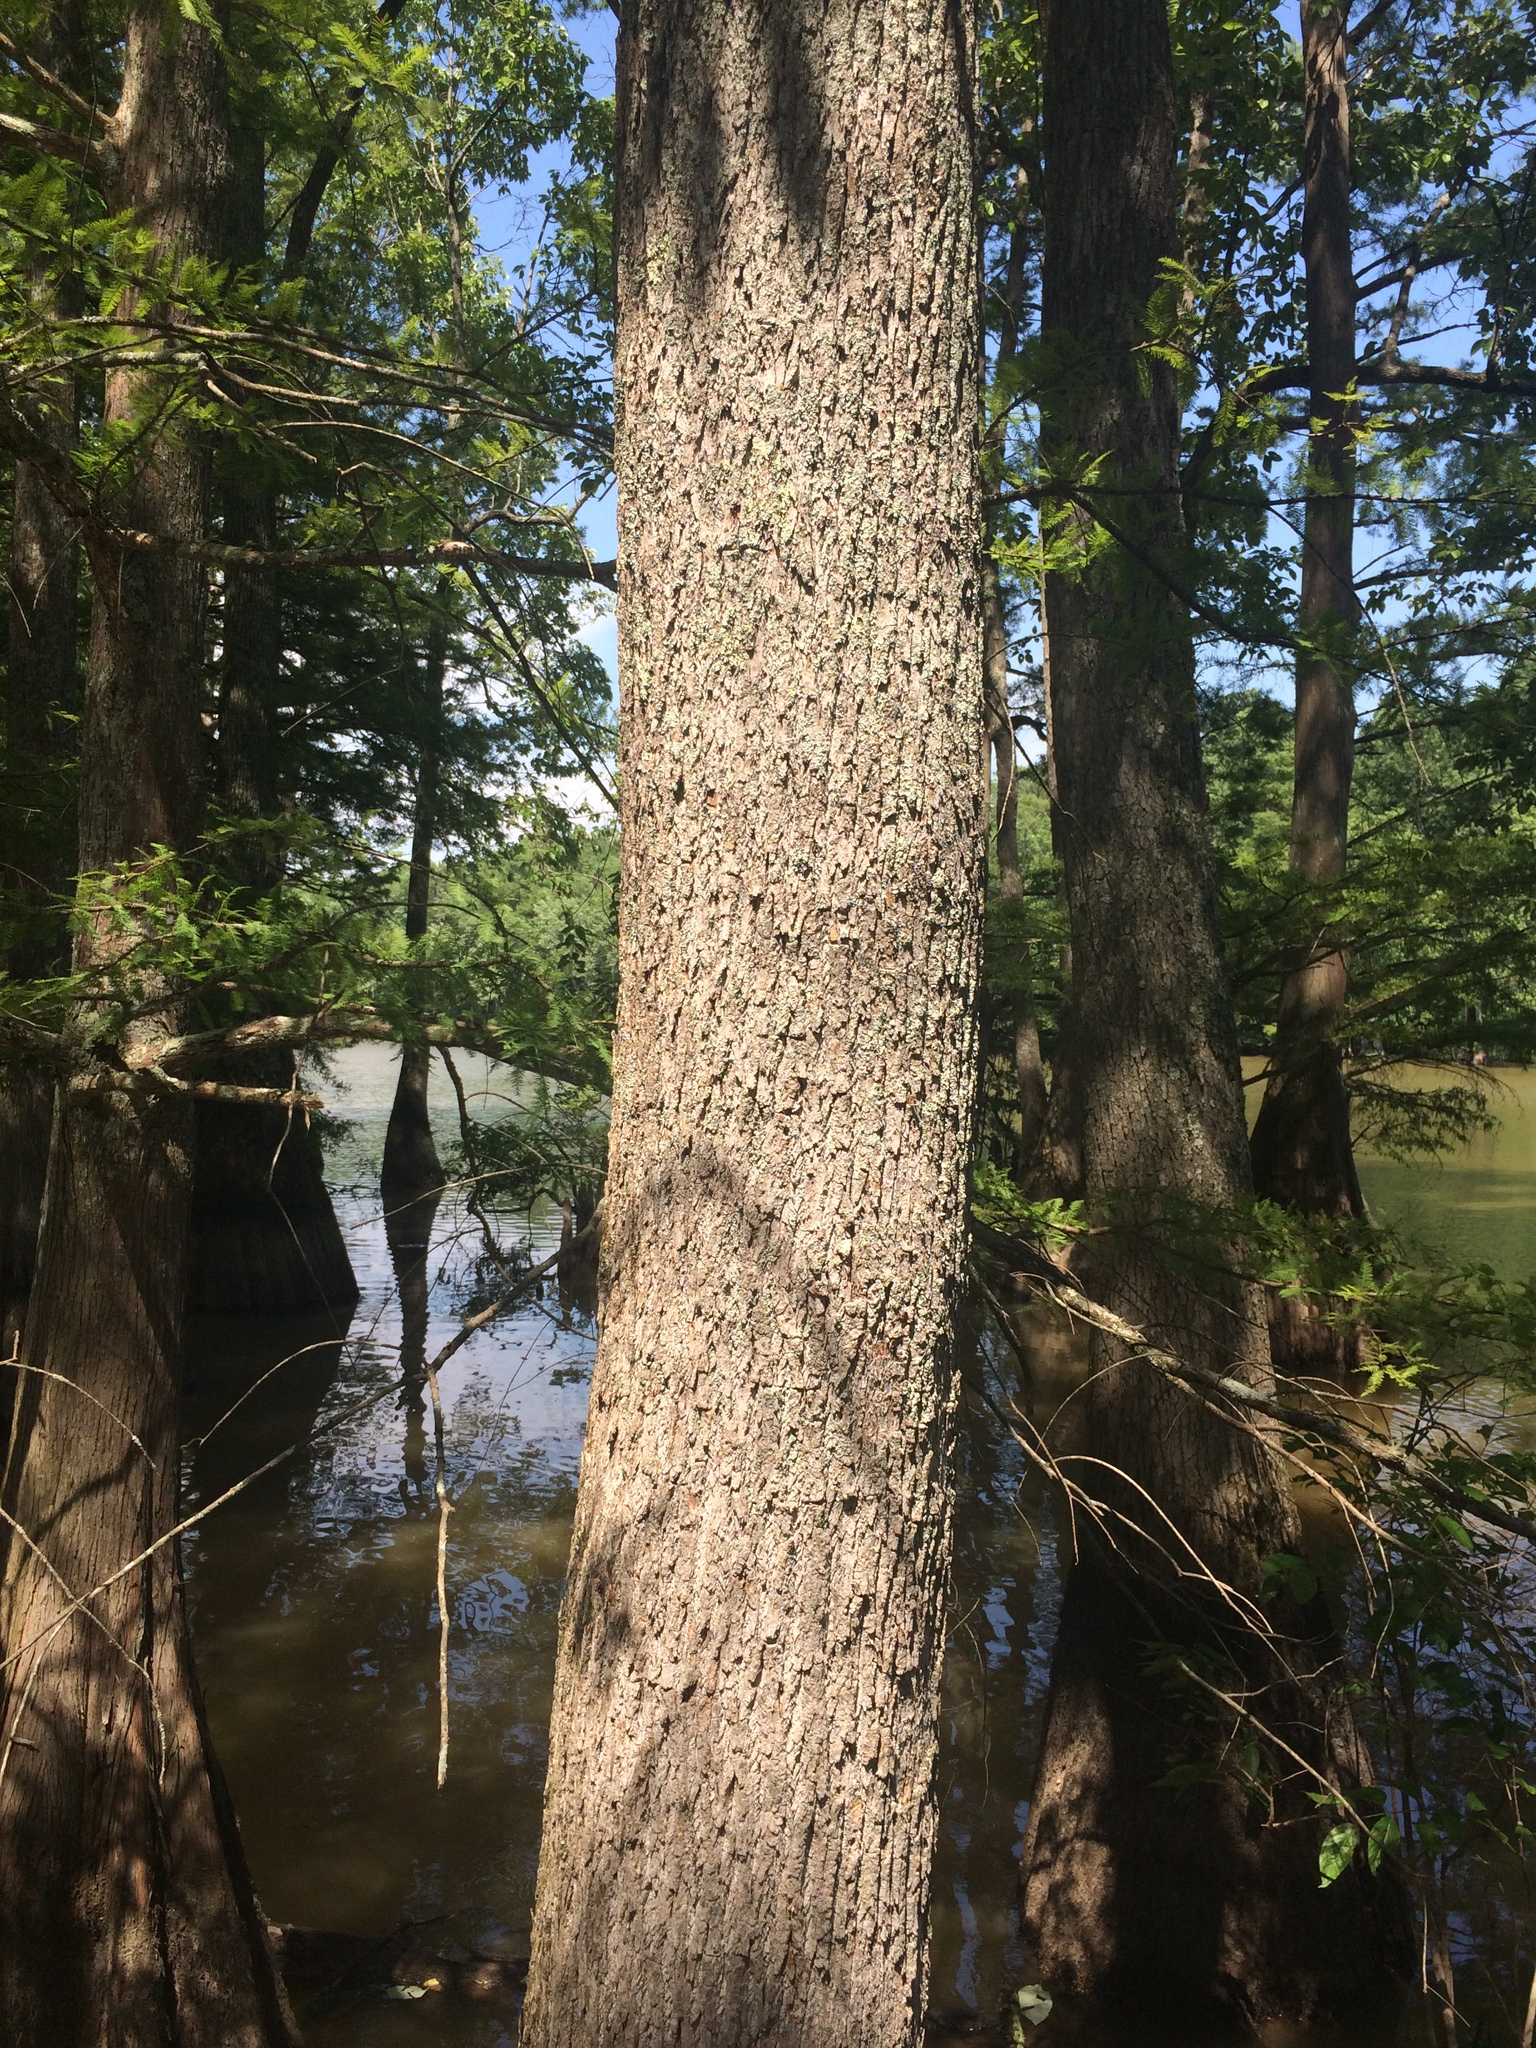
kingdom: Plantae
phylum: Tracheophyta
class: Magnoliopsida
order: Cornales
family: Nyssaceae
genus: Nyssa
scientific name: Nyssa aquatica
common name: Swamp tupelo
